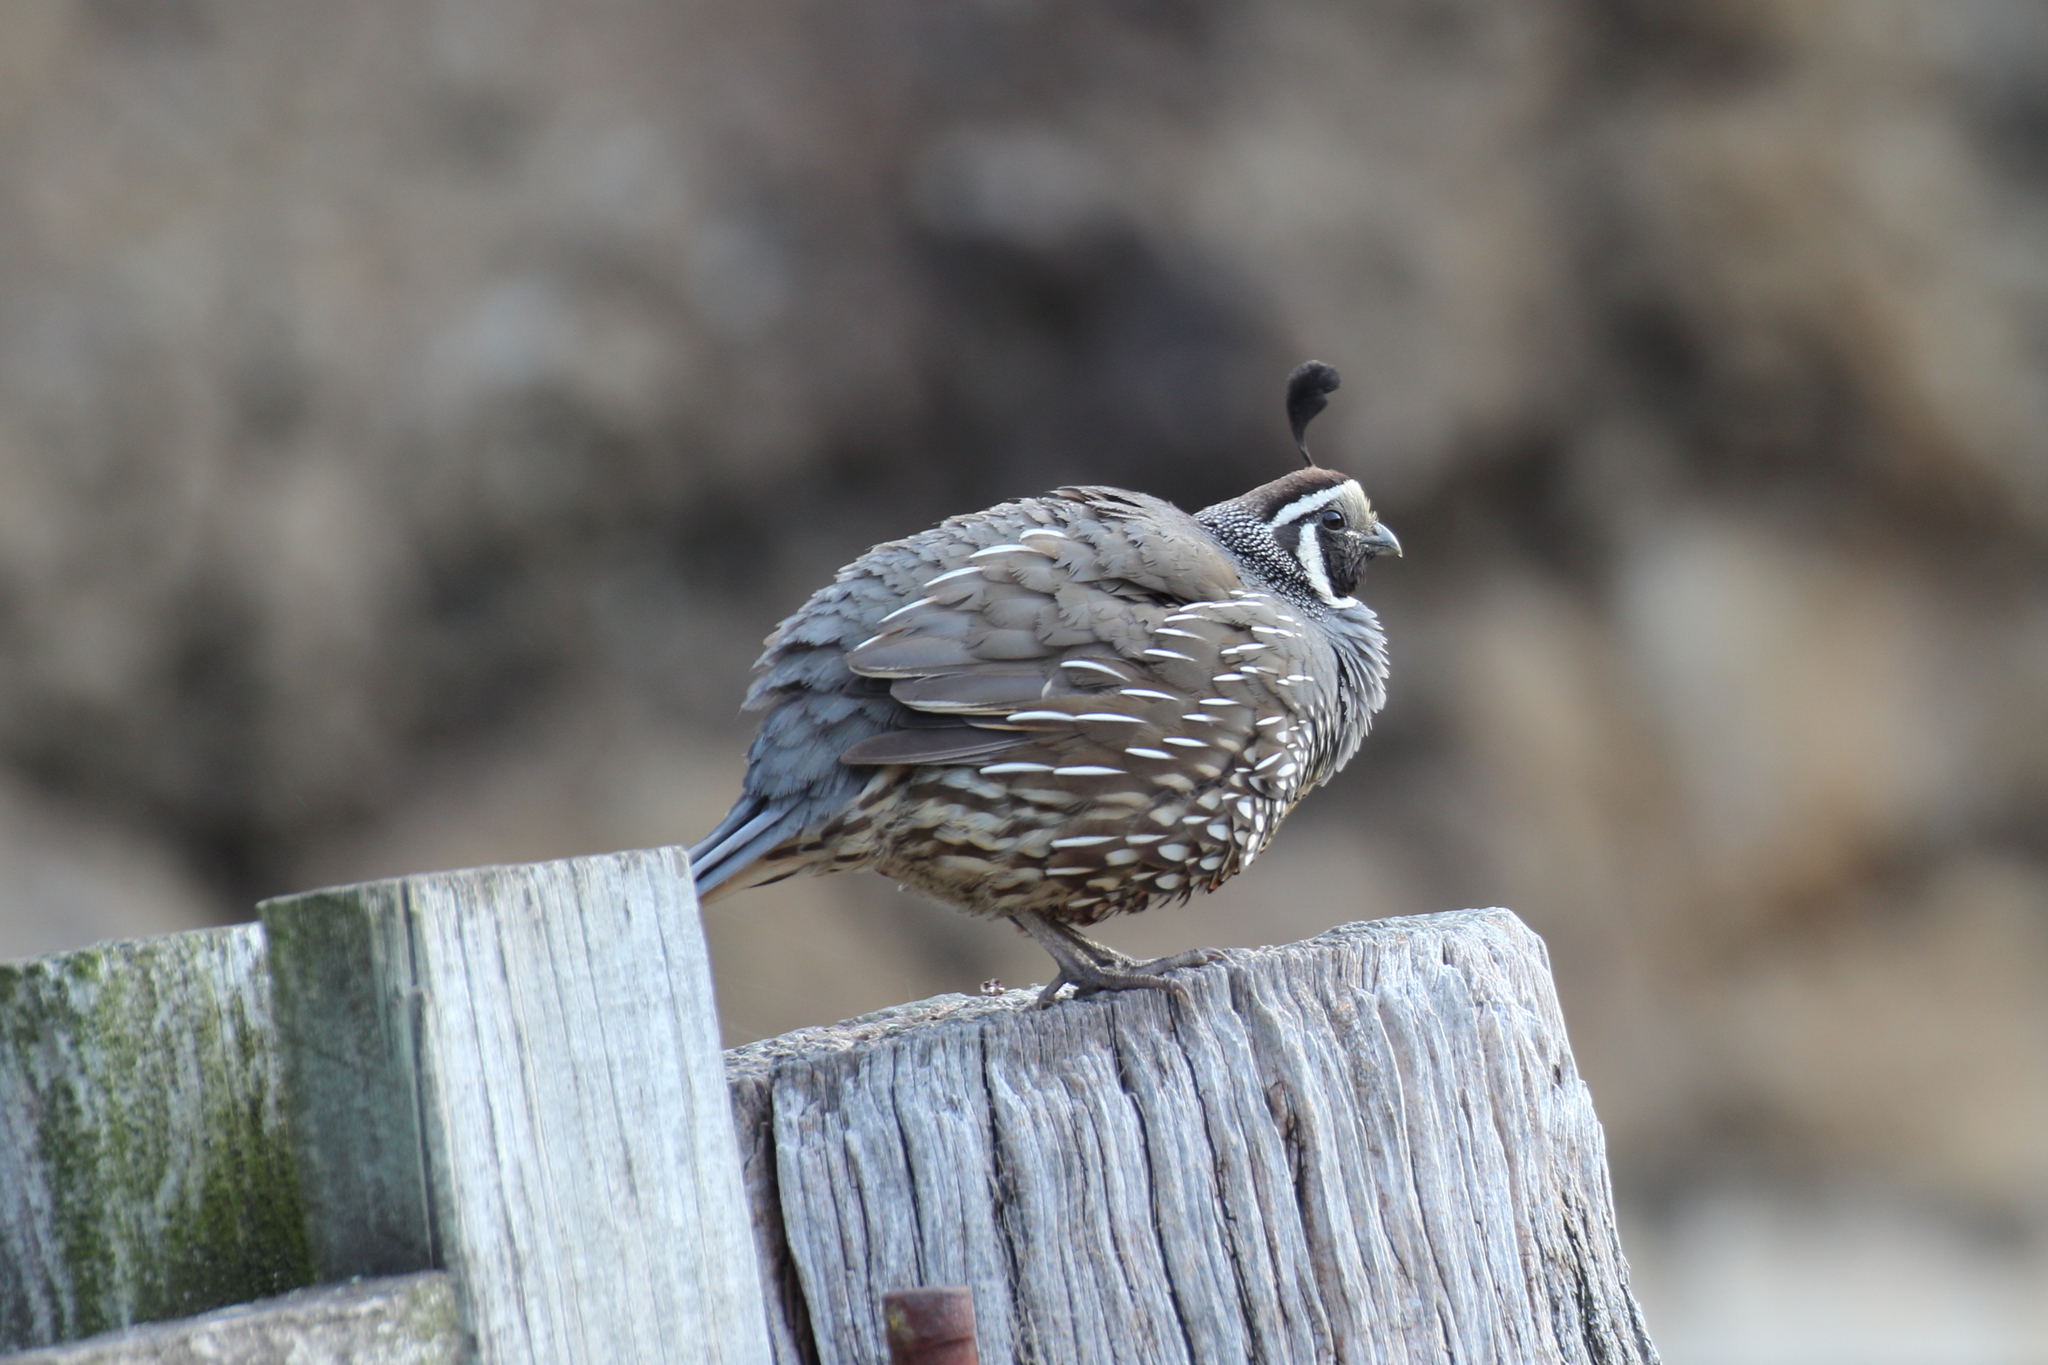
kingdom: Animalia
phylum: Chordata
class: Aves
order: Galliformes
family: Odontophoridae
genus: Callipepla
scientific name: Callipepla californica
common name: California quail
